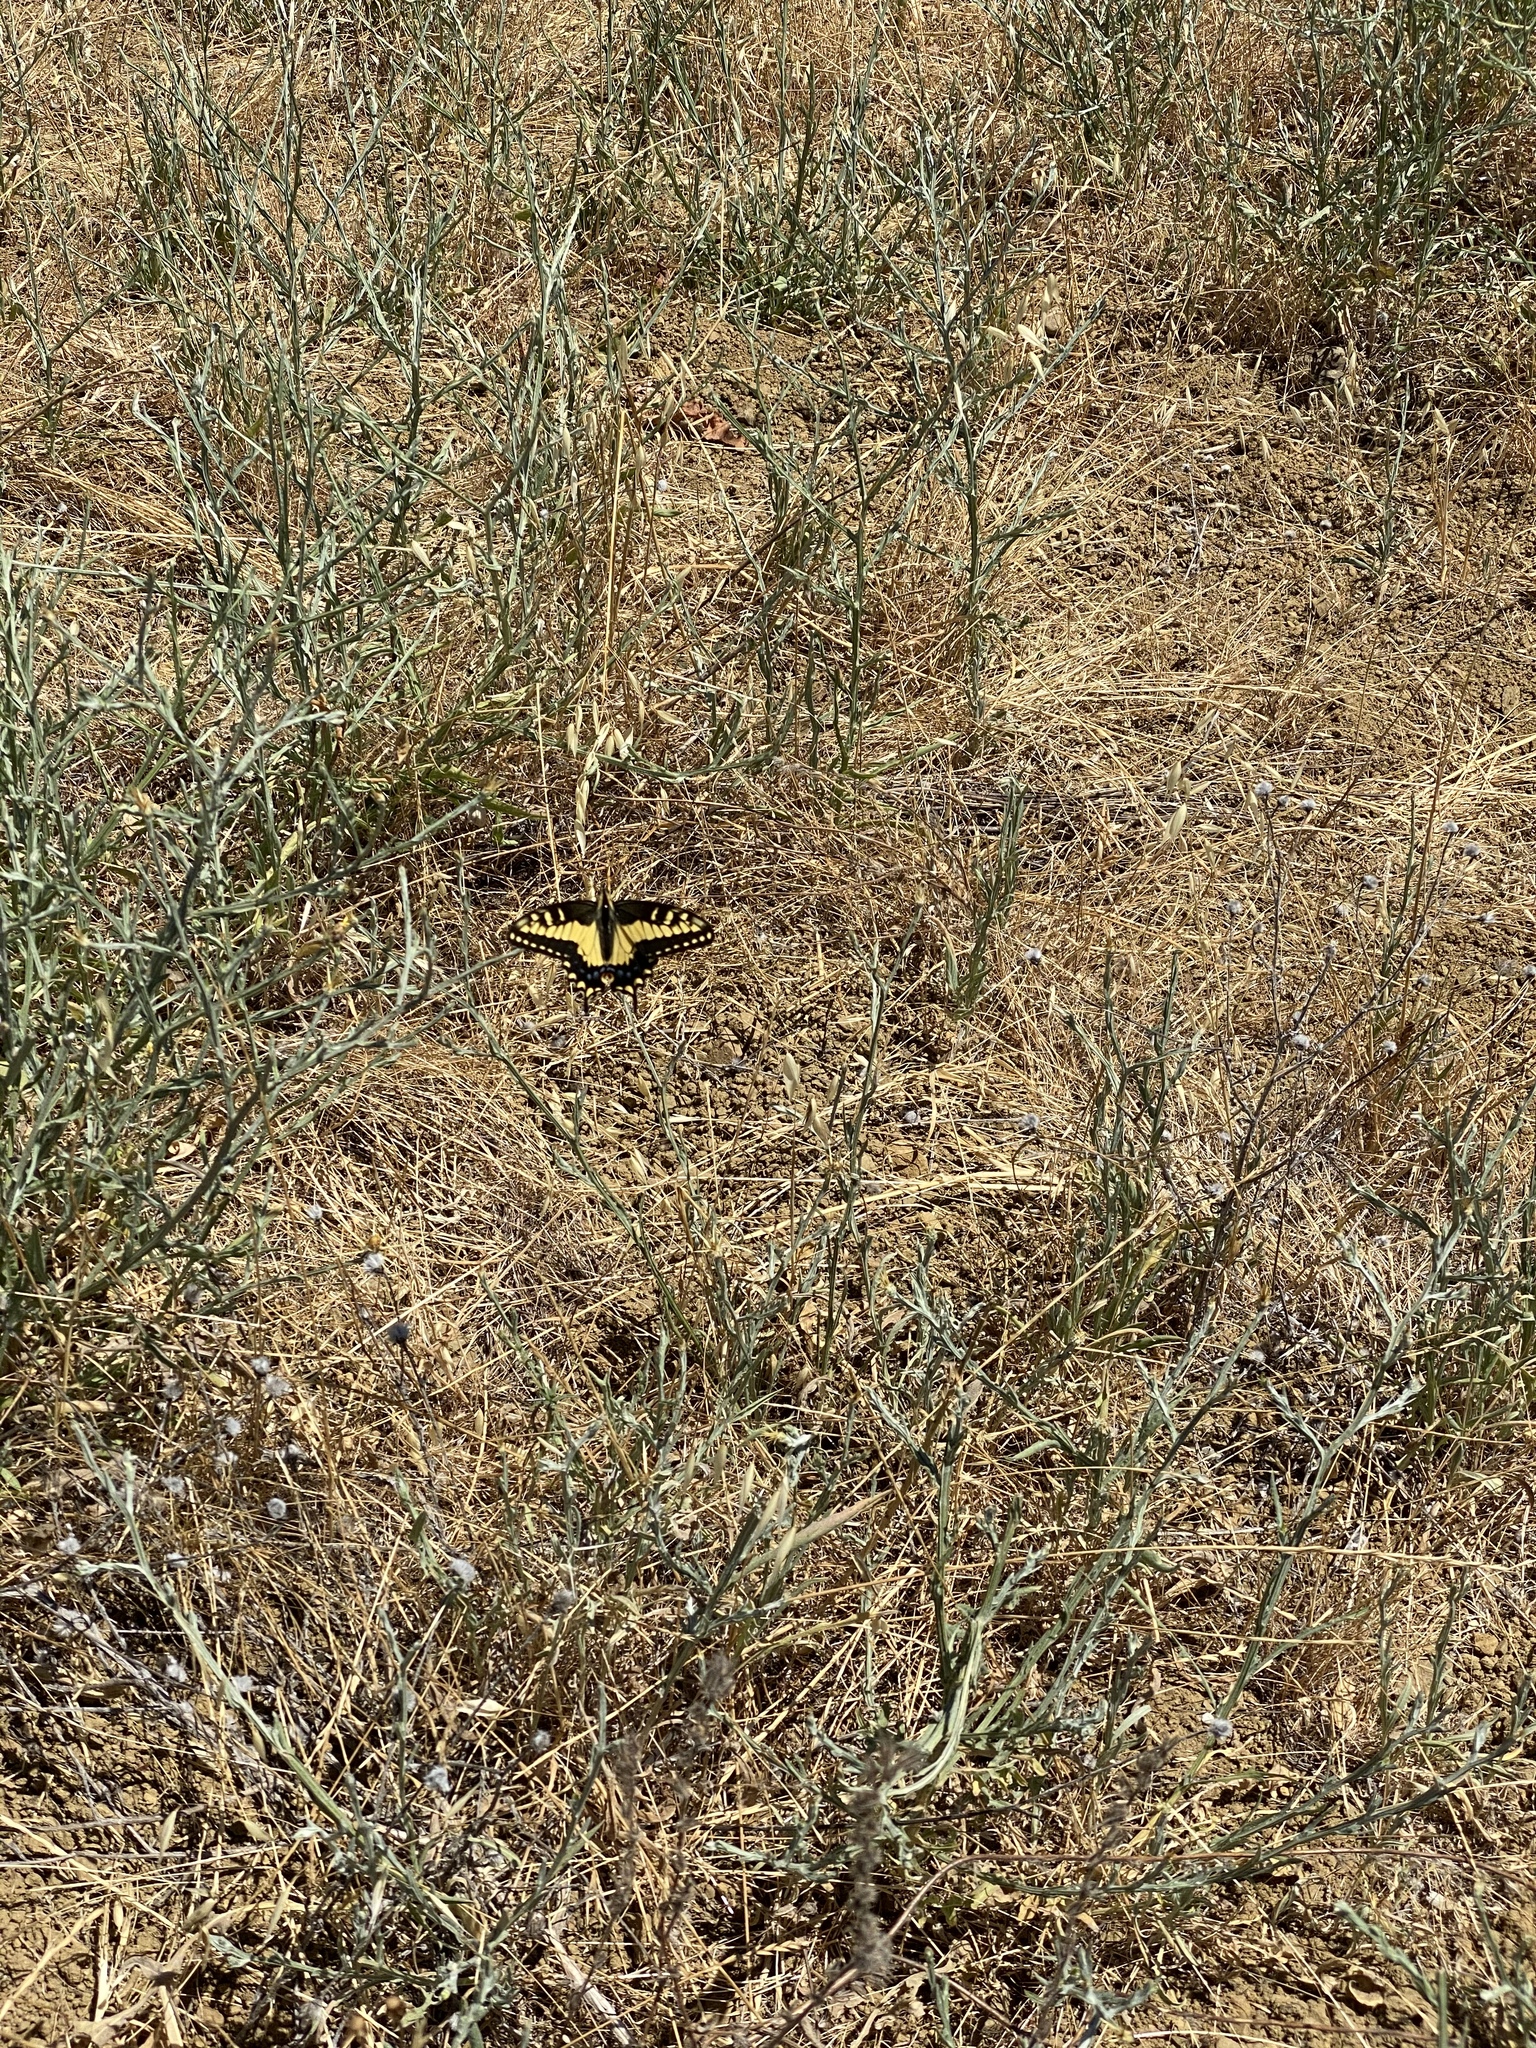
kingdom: Animalia
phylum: Arthropoda
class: Insecta
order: Lepidoptera
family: Papilionidae
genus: Papilio
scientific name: Papilio zelicaon
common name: Anise swallowtail
